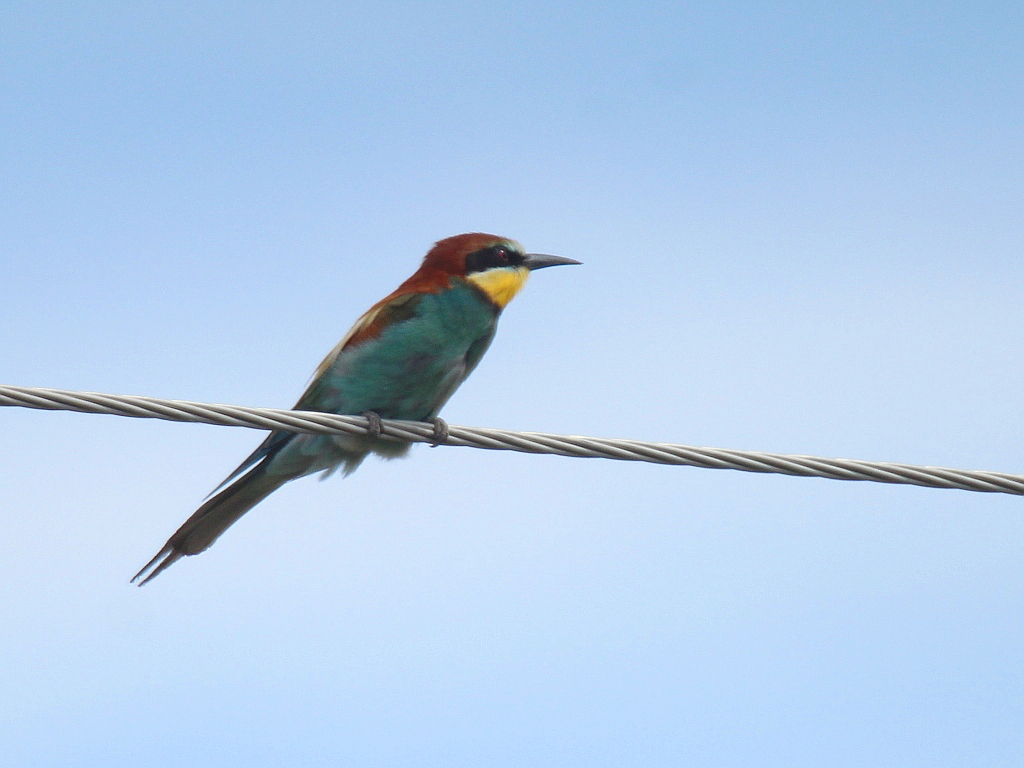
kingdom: Animalia
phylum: Chordata
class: Aves
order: Coraciiformes
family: Meropidae
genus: Merops
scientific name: Merops apiaster
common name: European bee-eater
